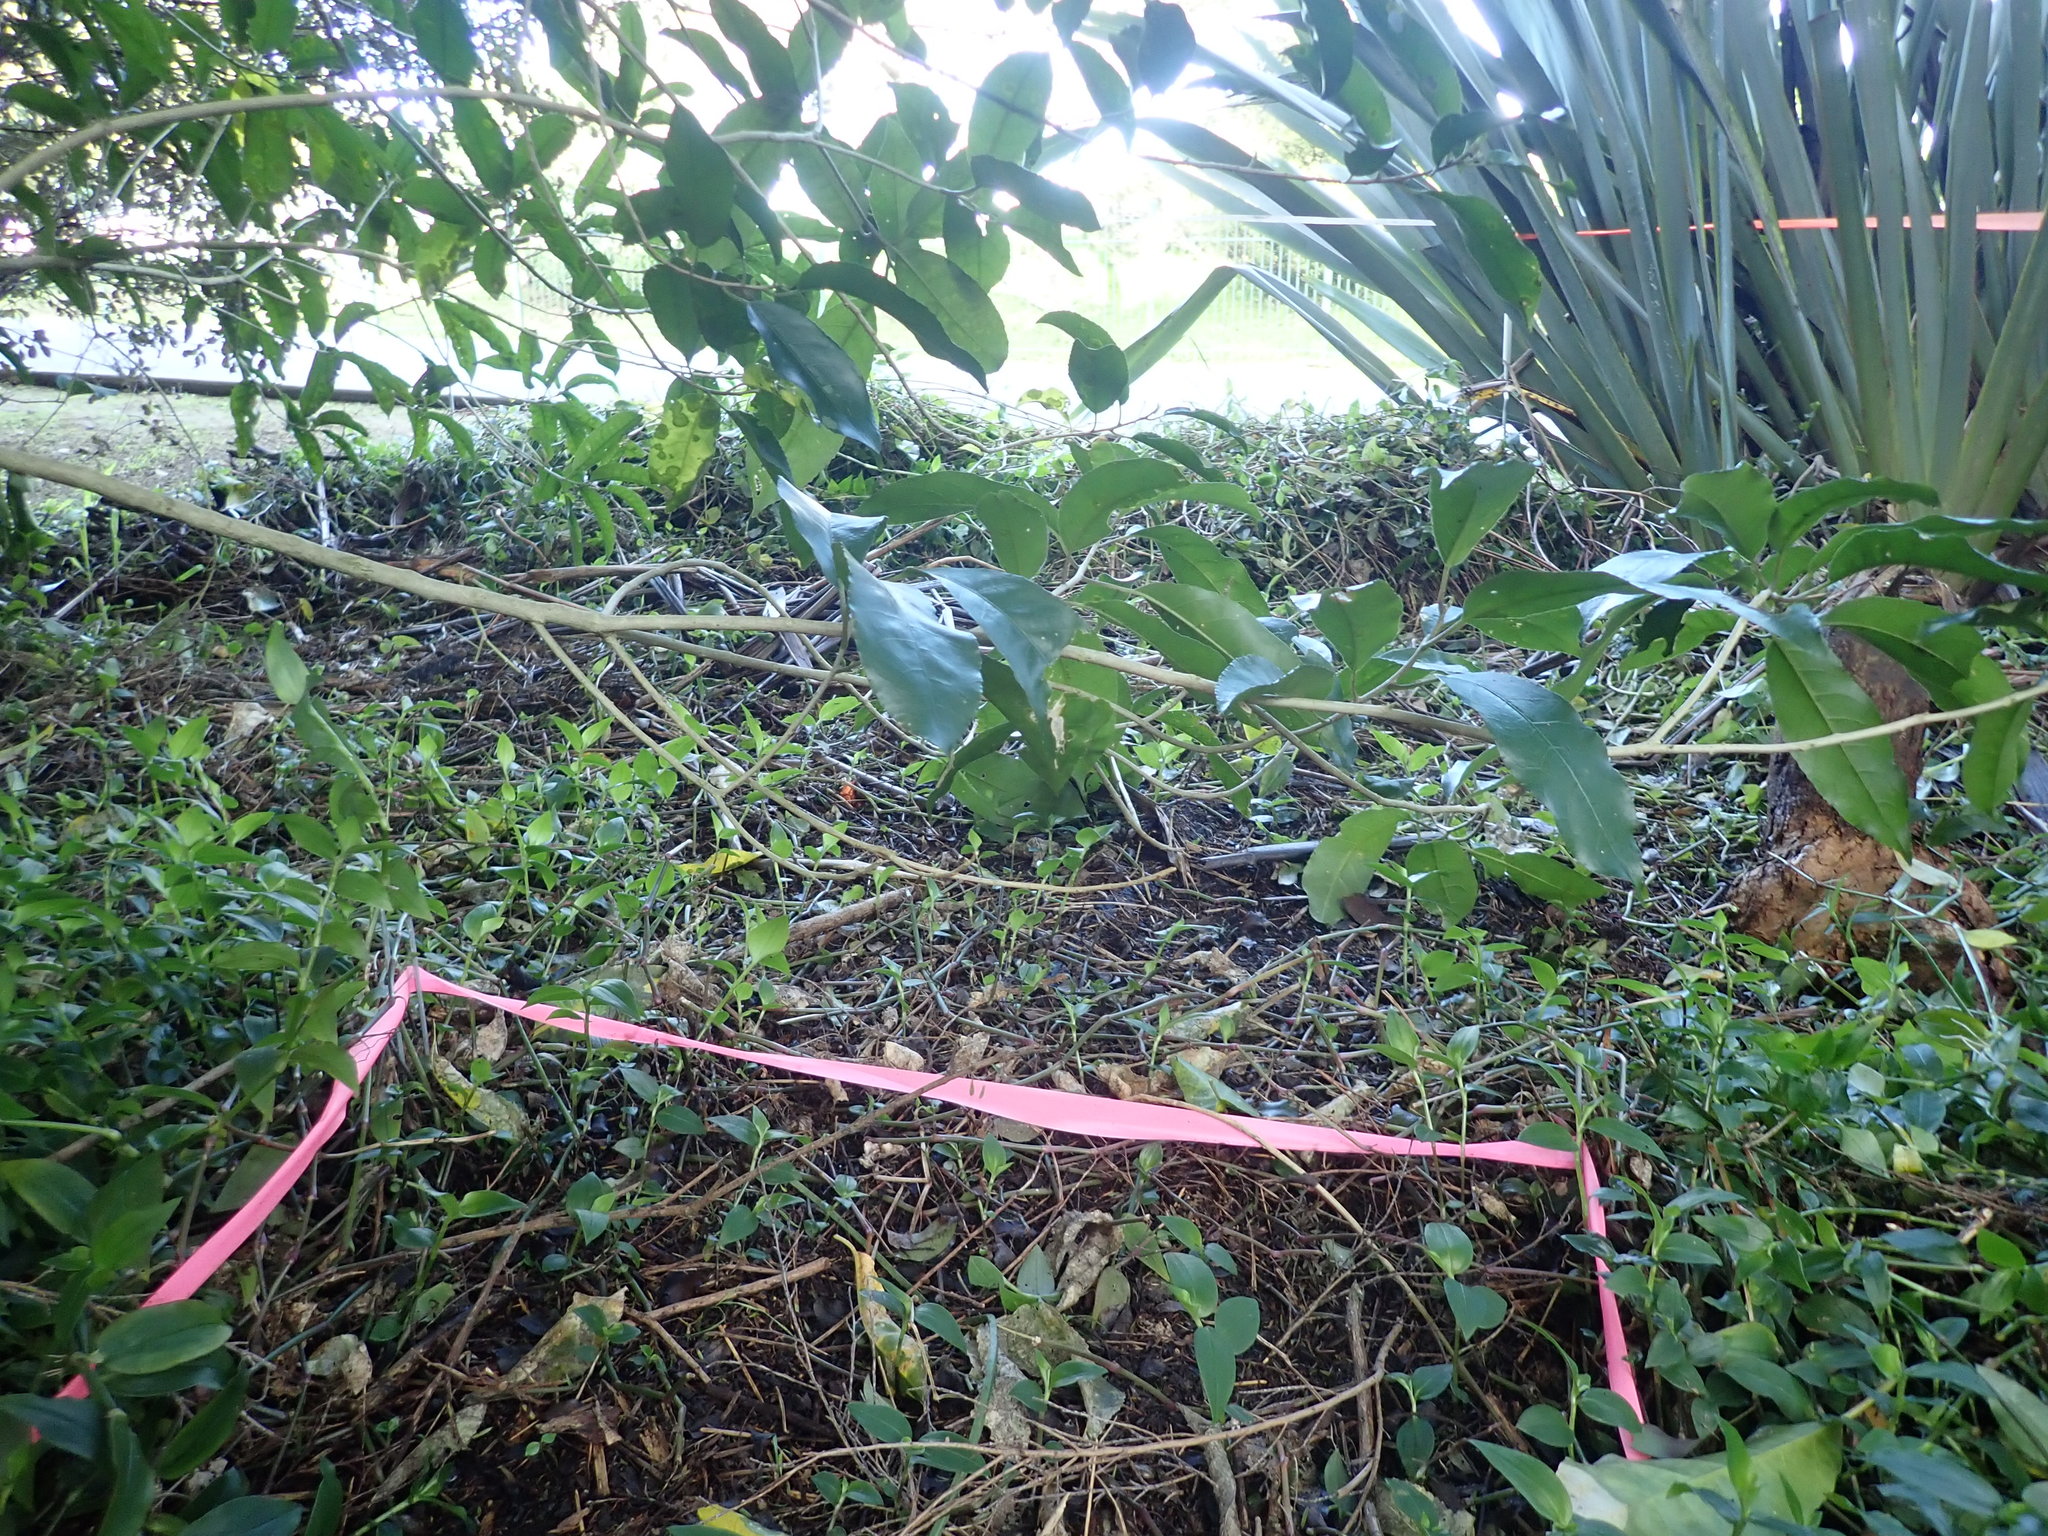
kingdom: Plantae
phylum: Tracheophyta
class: Magnoliopsida
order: Malpighiales
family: Violaceae
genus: Melicytus
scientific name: Melicytus ramiflorus
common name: Mahoe
